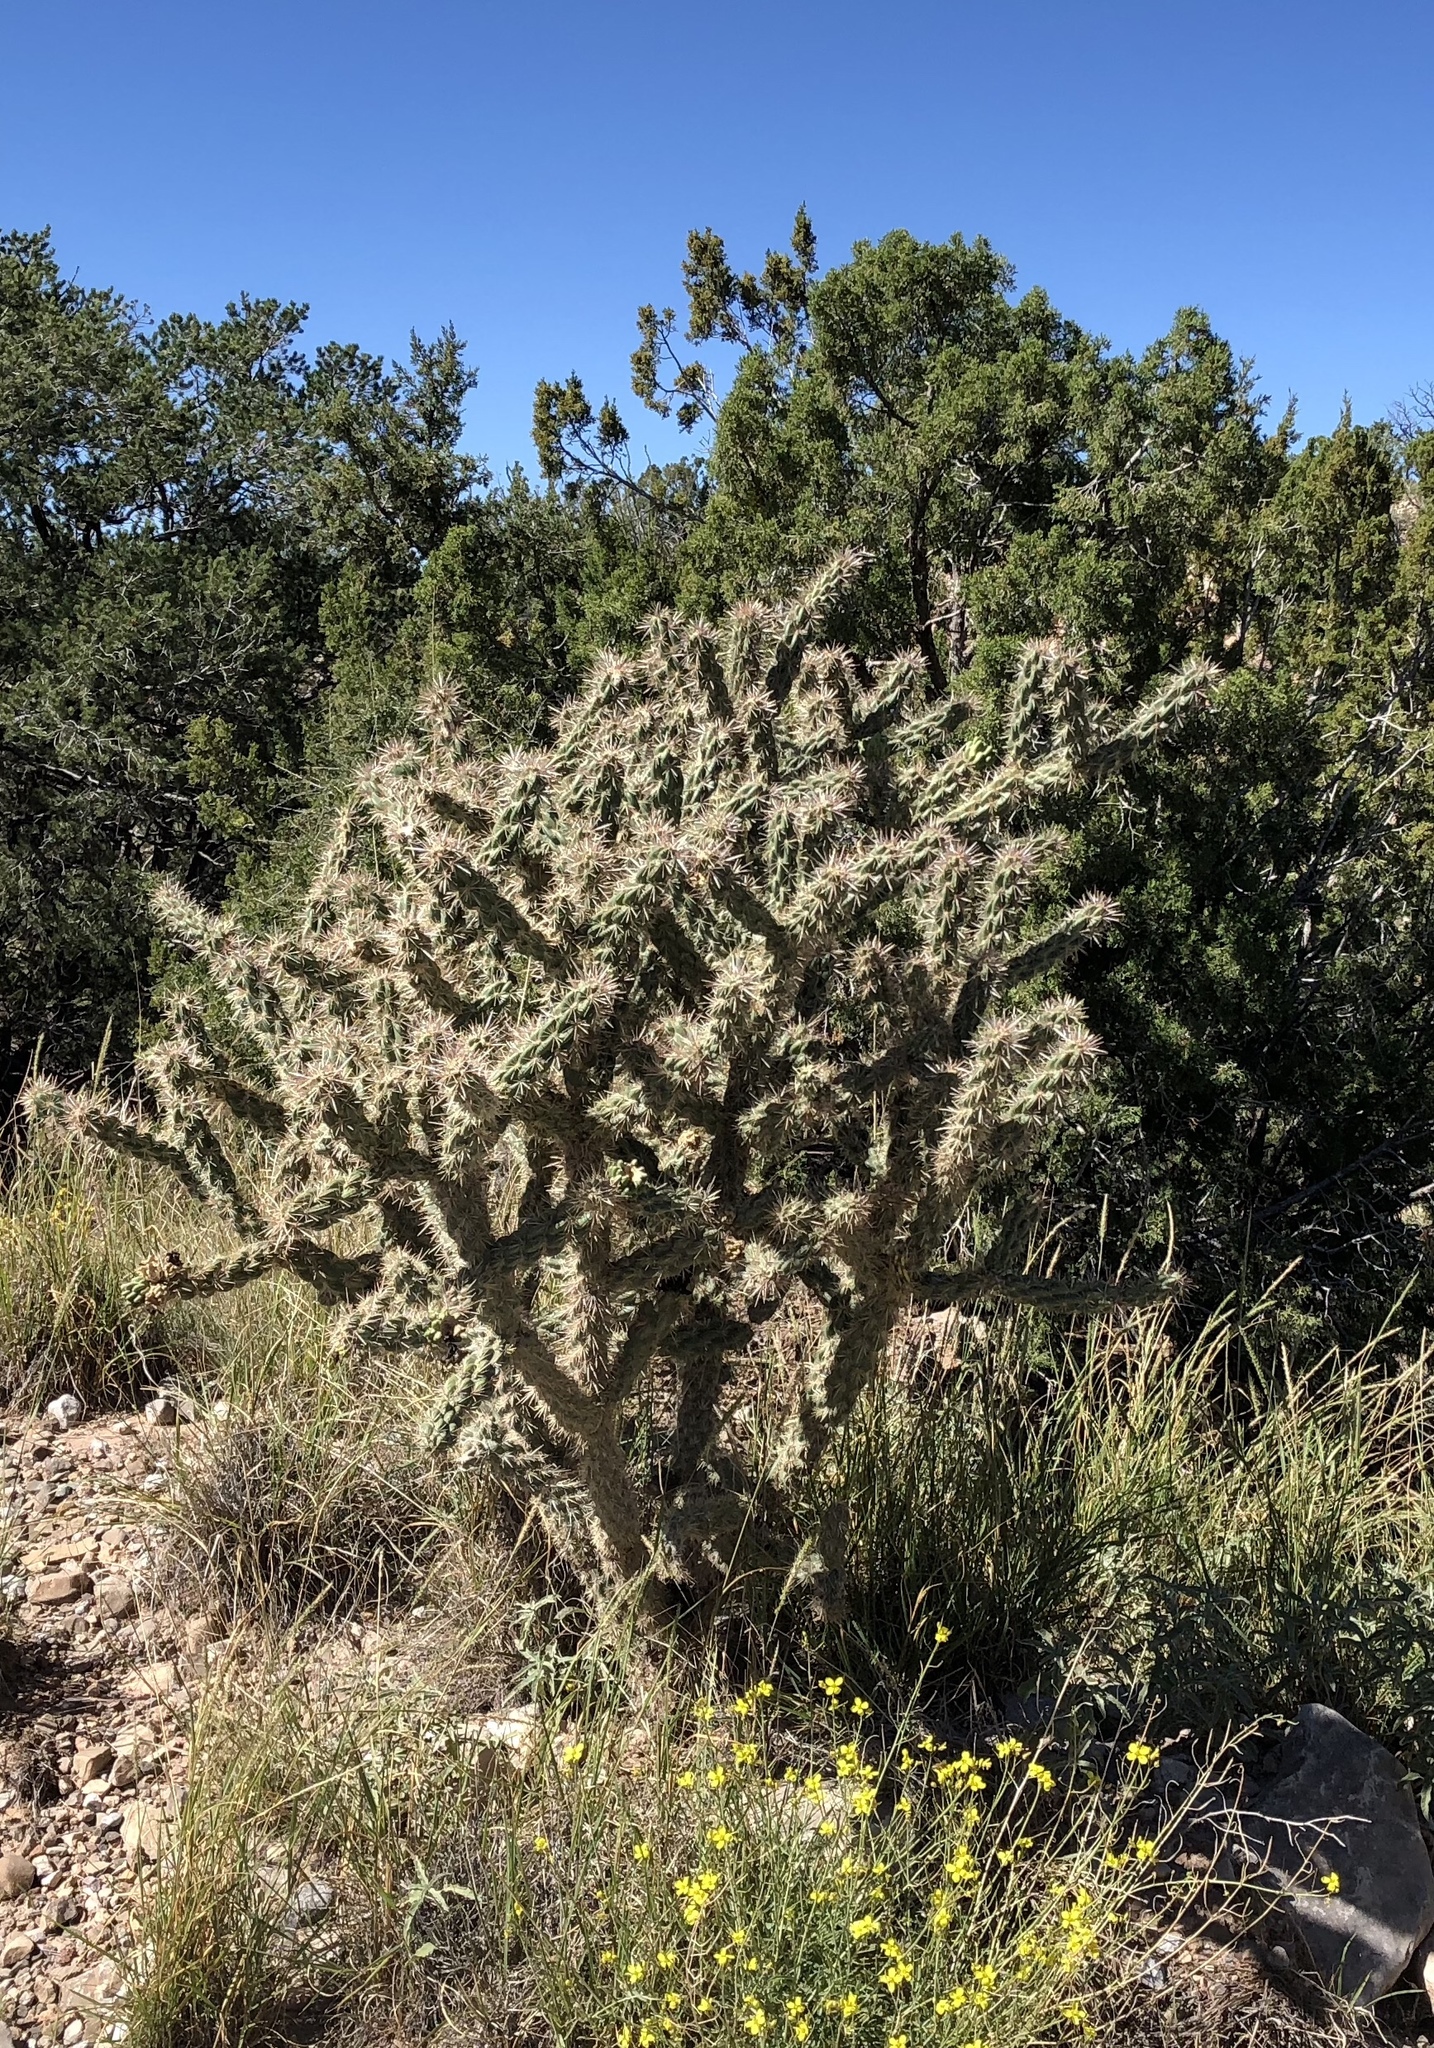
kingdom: Plantae
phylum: Tracheophyta
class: Magnoliopsida
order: Caryophyllales
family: Cactaceae
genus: Cylindropuntia
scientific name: Cylindropuntia imbricata
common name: Candelabrum cactus
